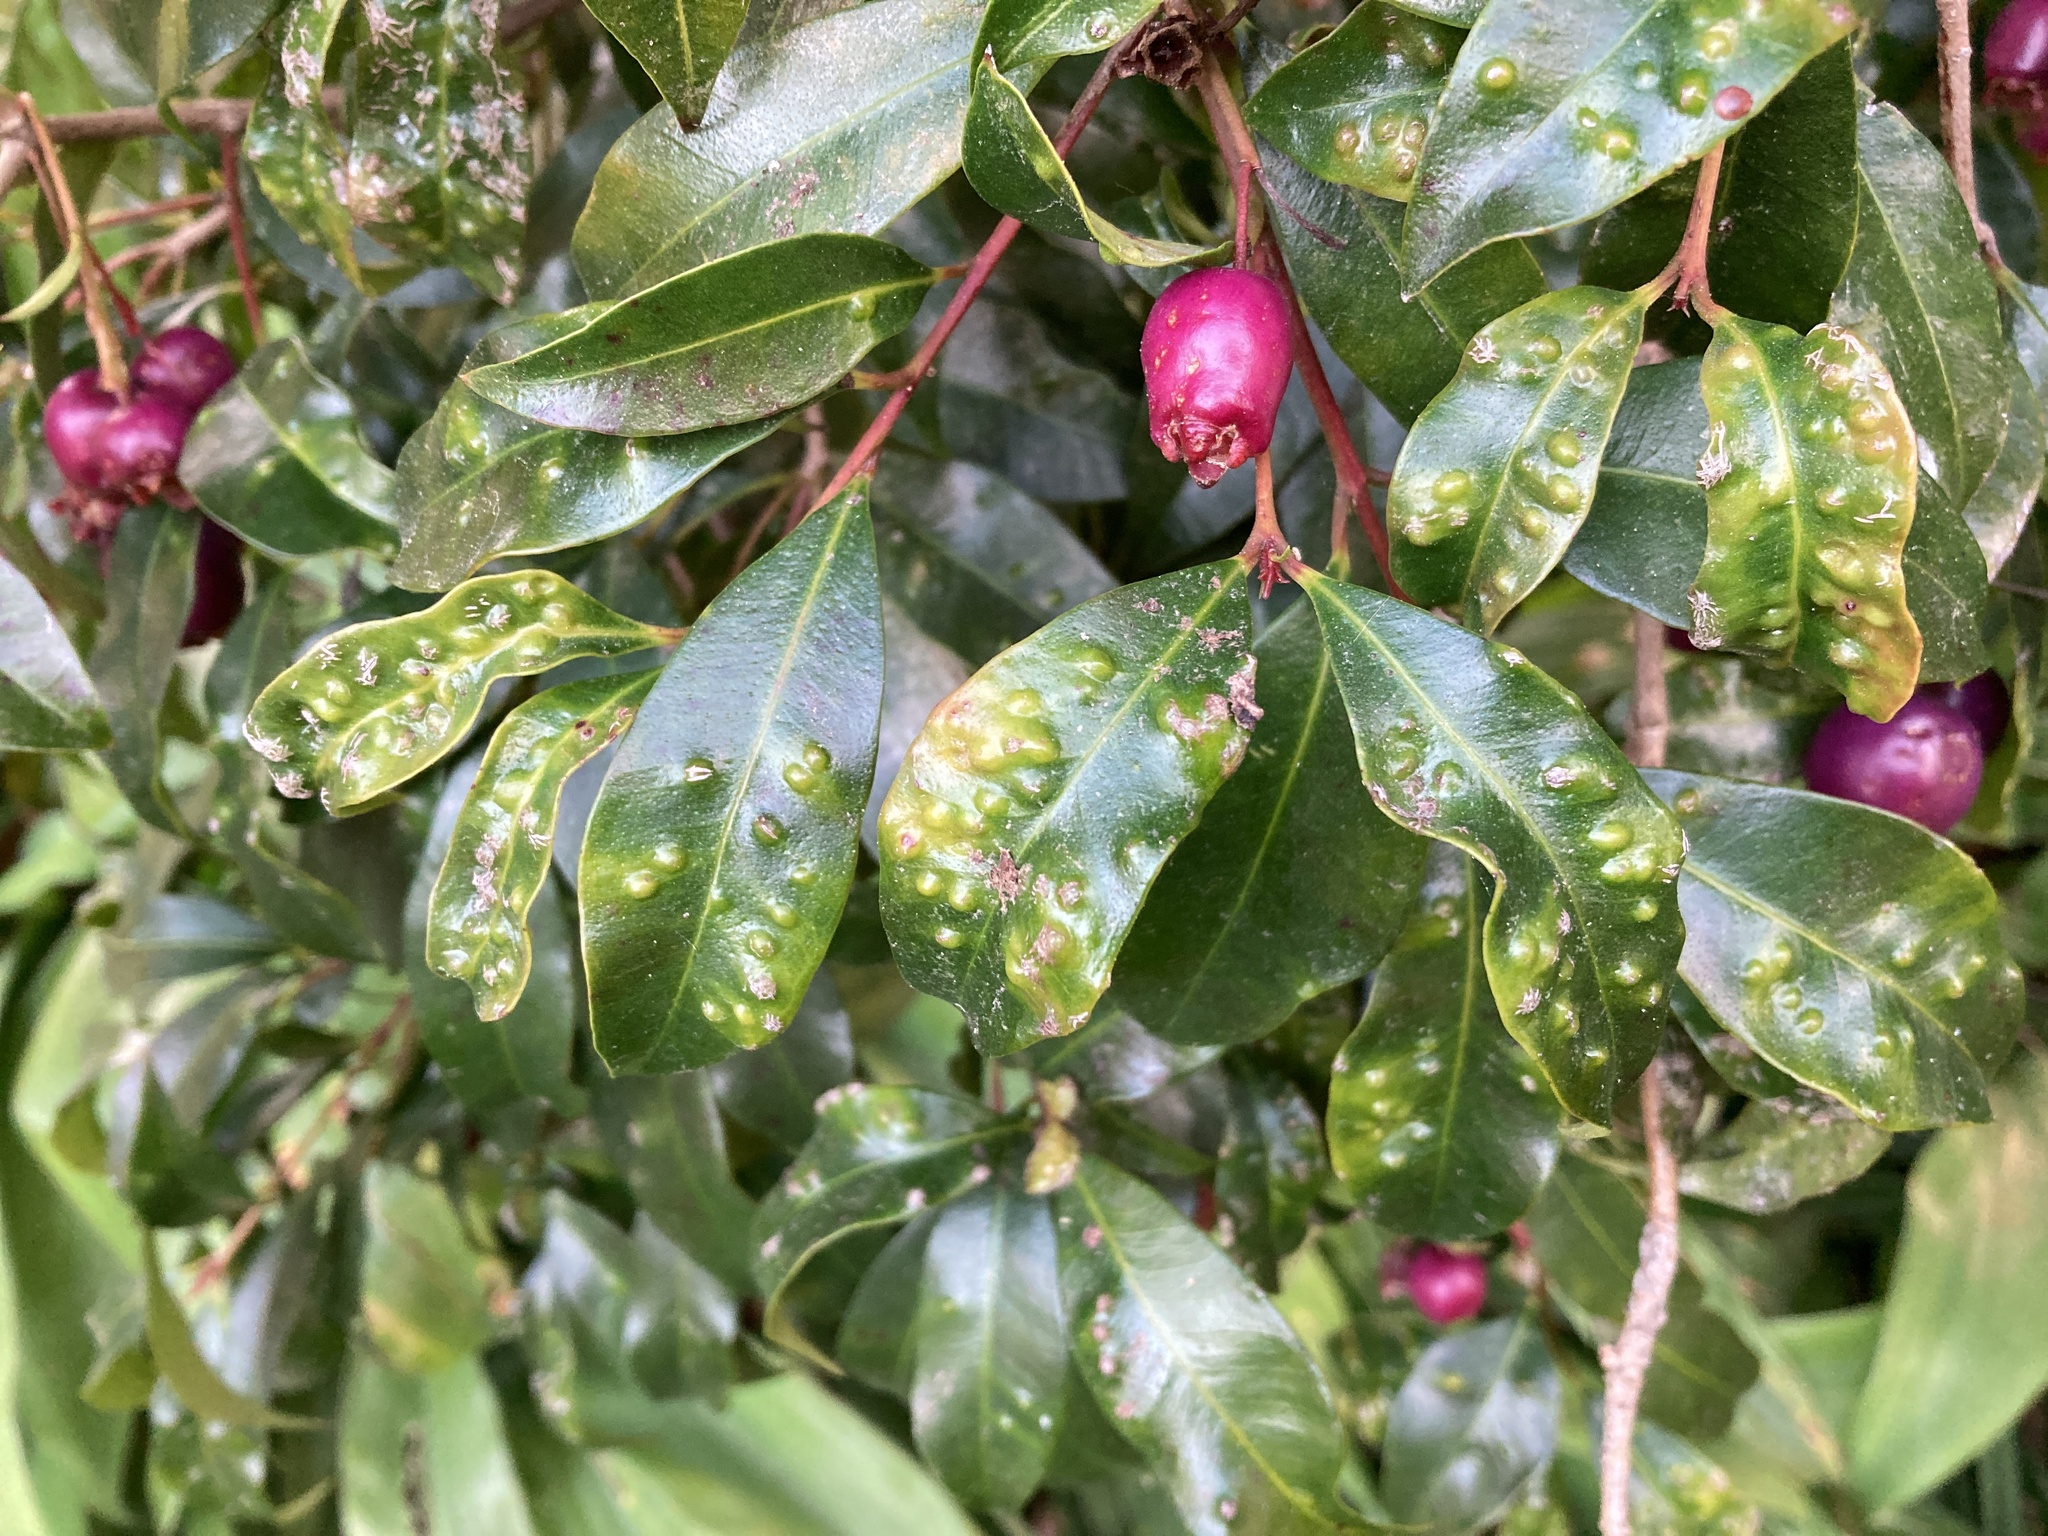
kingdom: Plantae
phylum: Tracheophyta
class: Magnoliopsida
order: Myrtales
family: Myrtaceae
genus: Syzygium
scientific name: Syzygium paniculatum
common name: Magenta lilly-pilly
